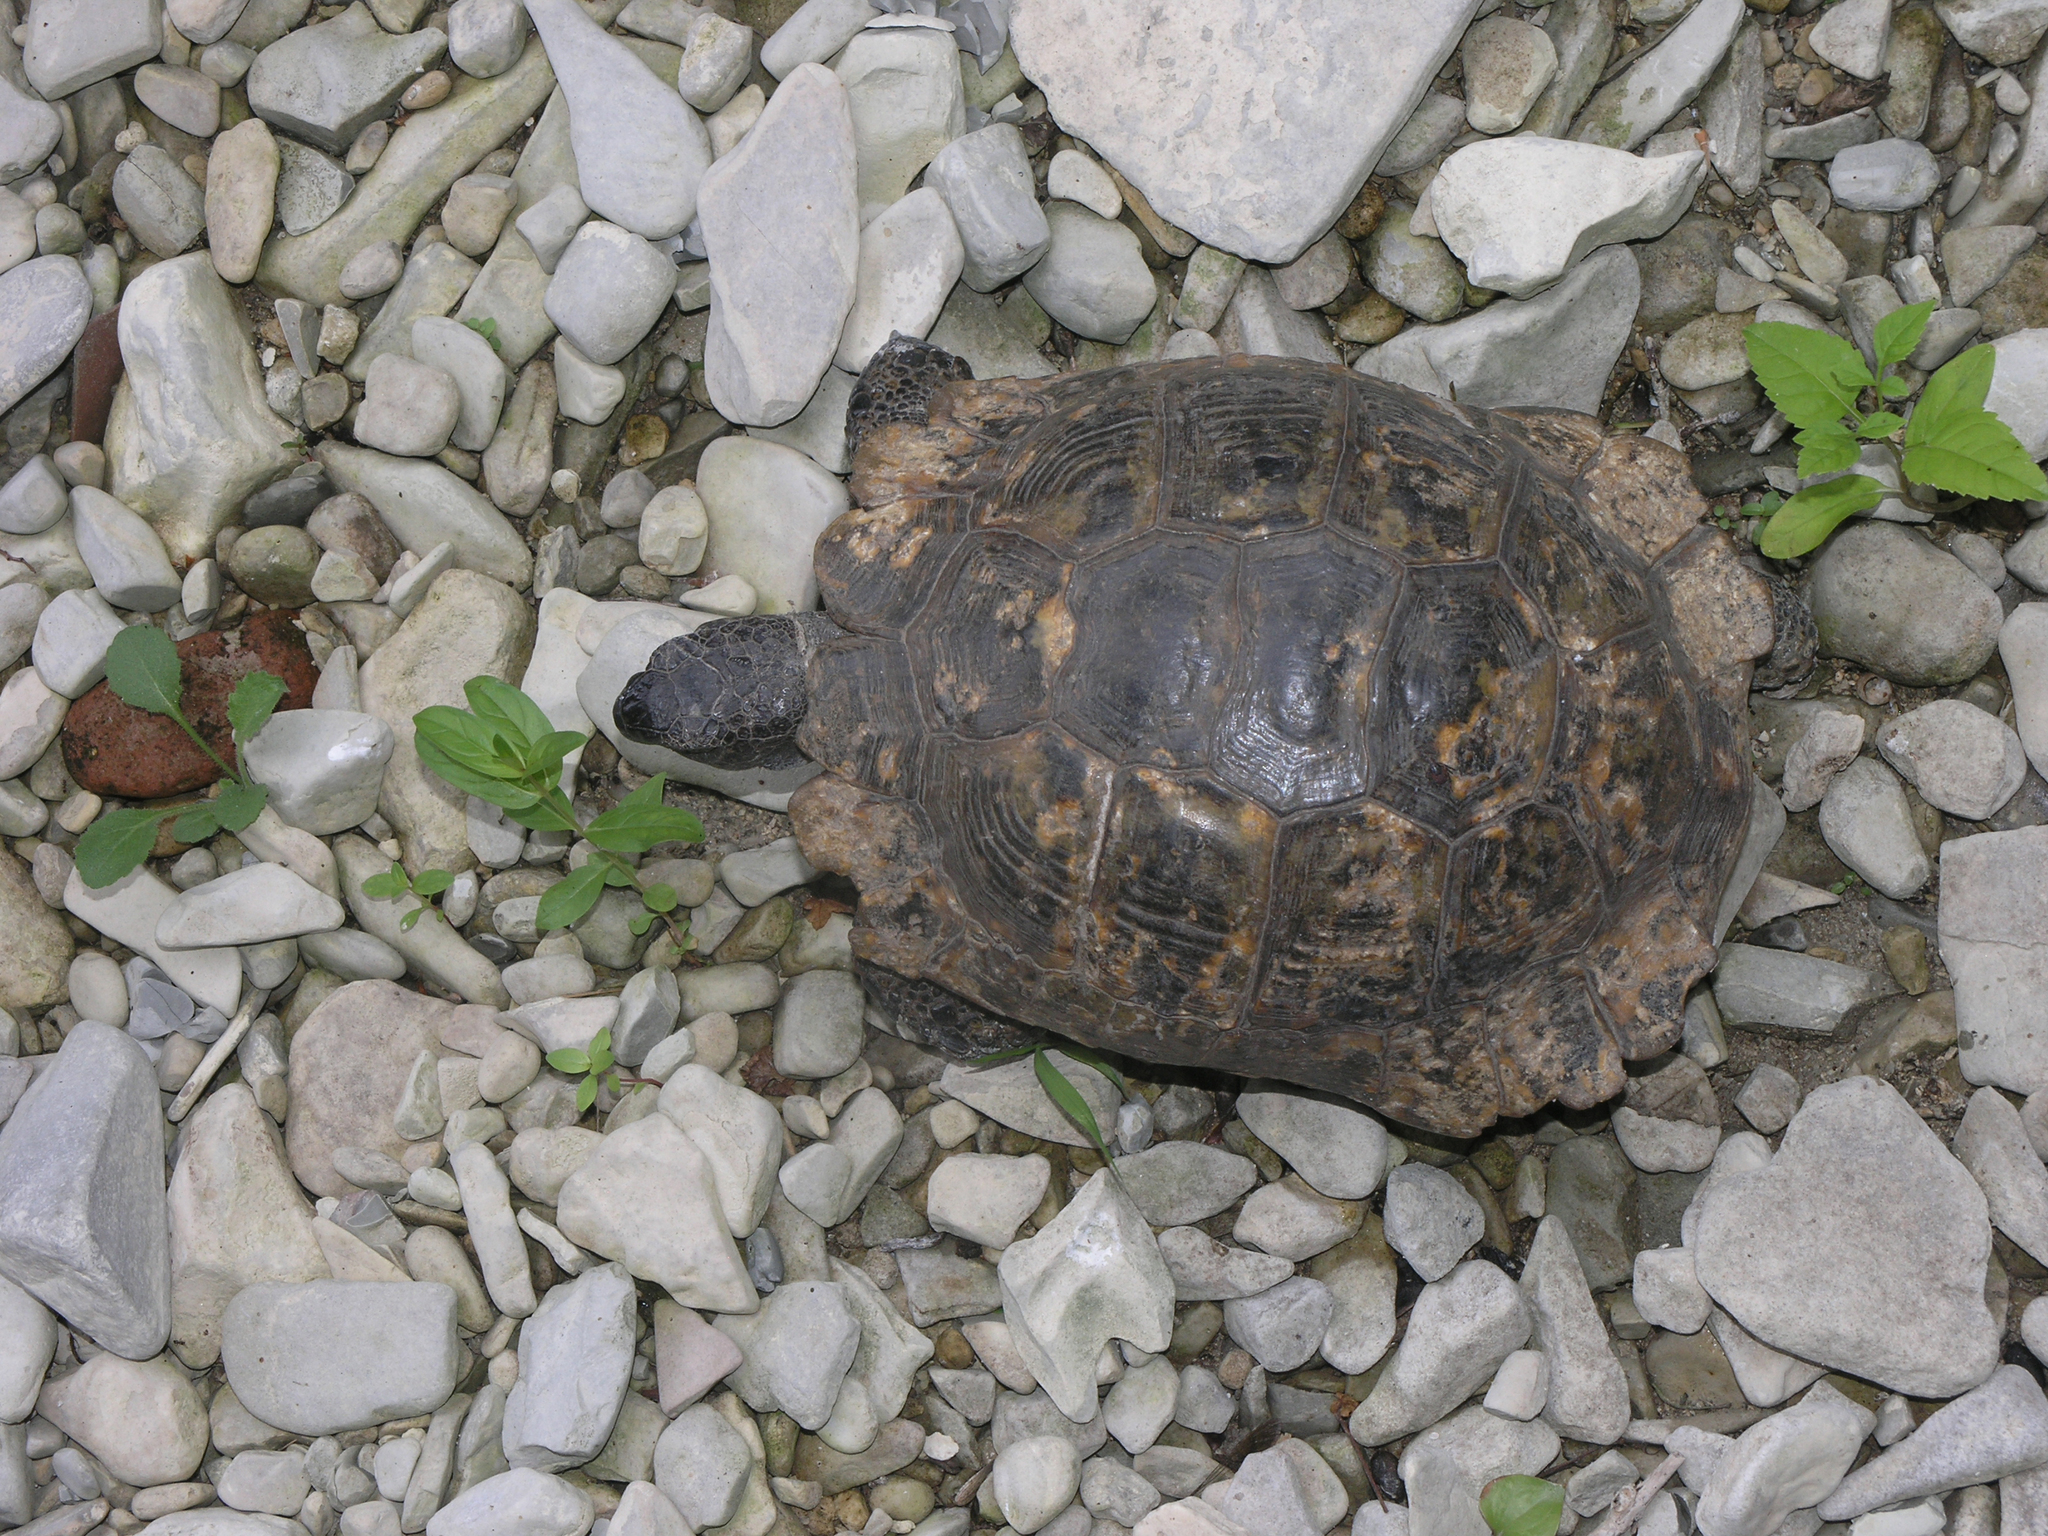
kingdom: Animalia
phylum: Chordata
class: Testudines
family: Testudinidae
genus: Testudo
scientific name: Testudo graeca
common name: Common tortoise
